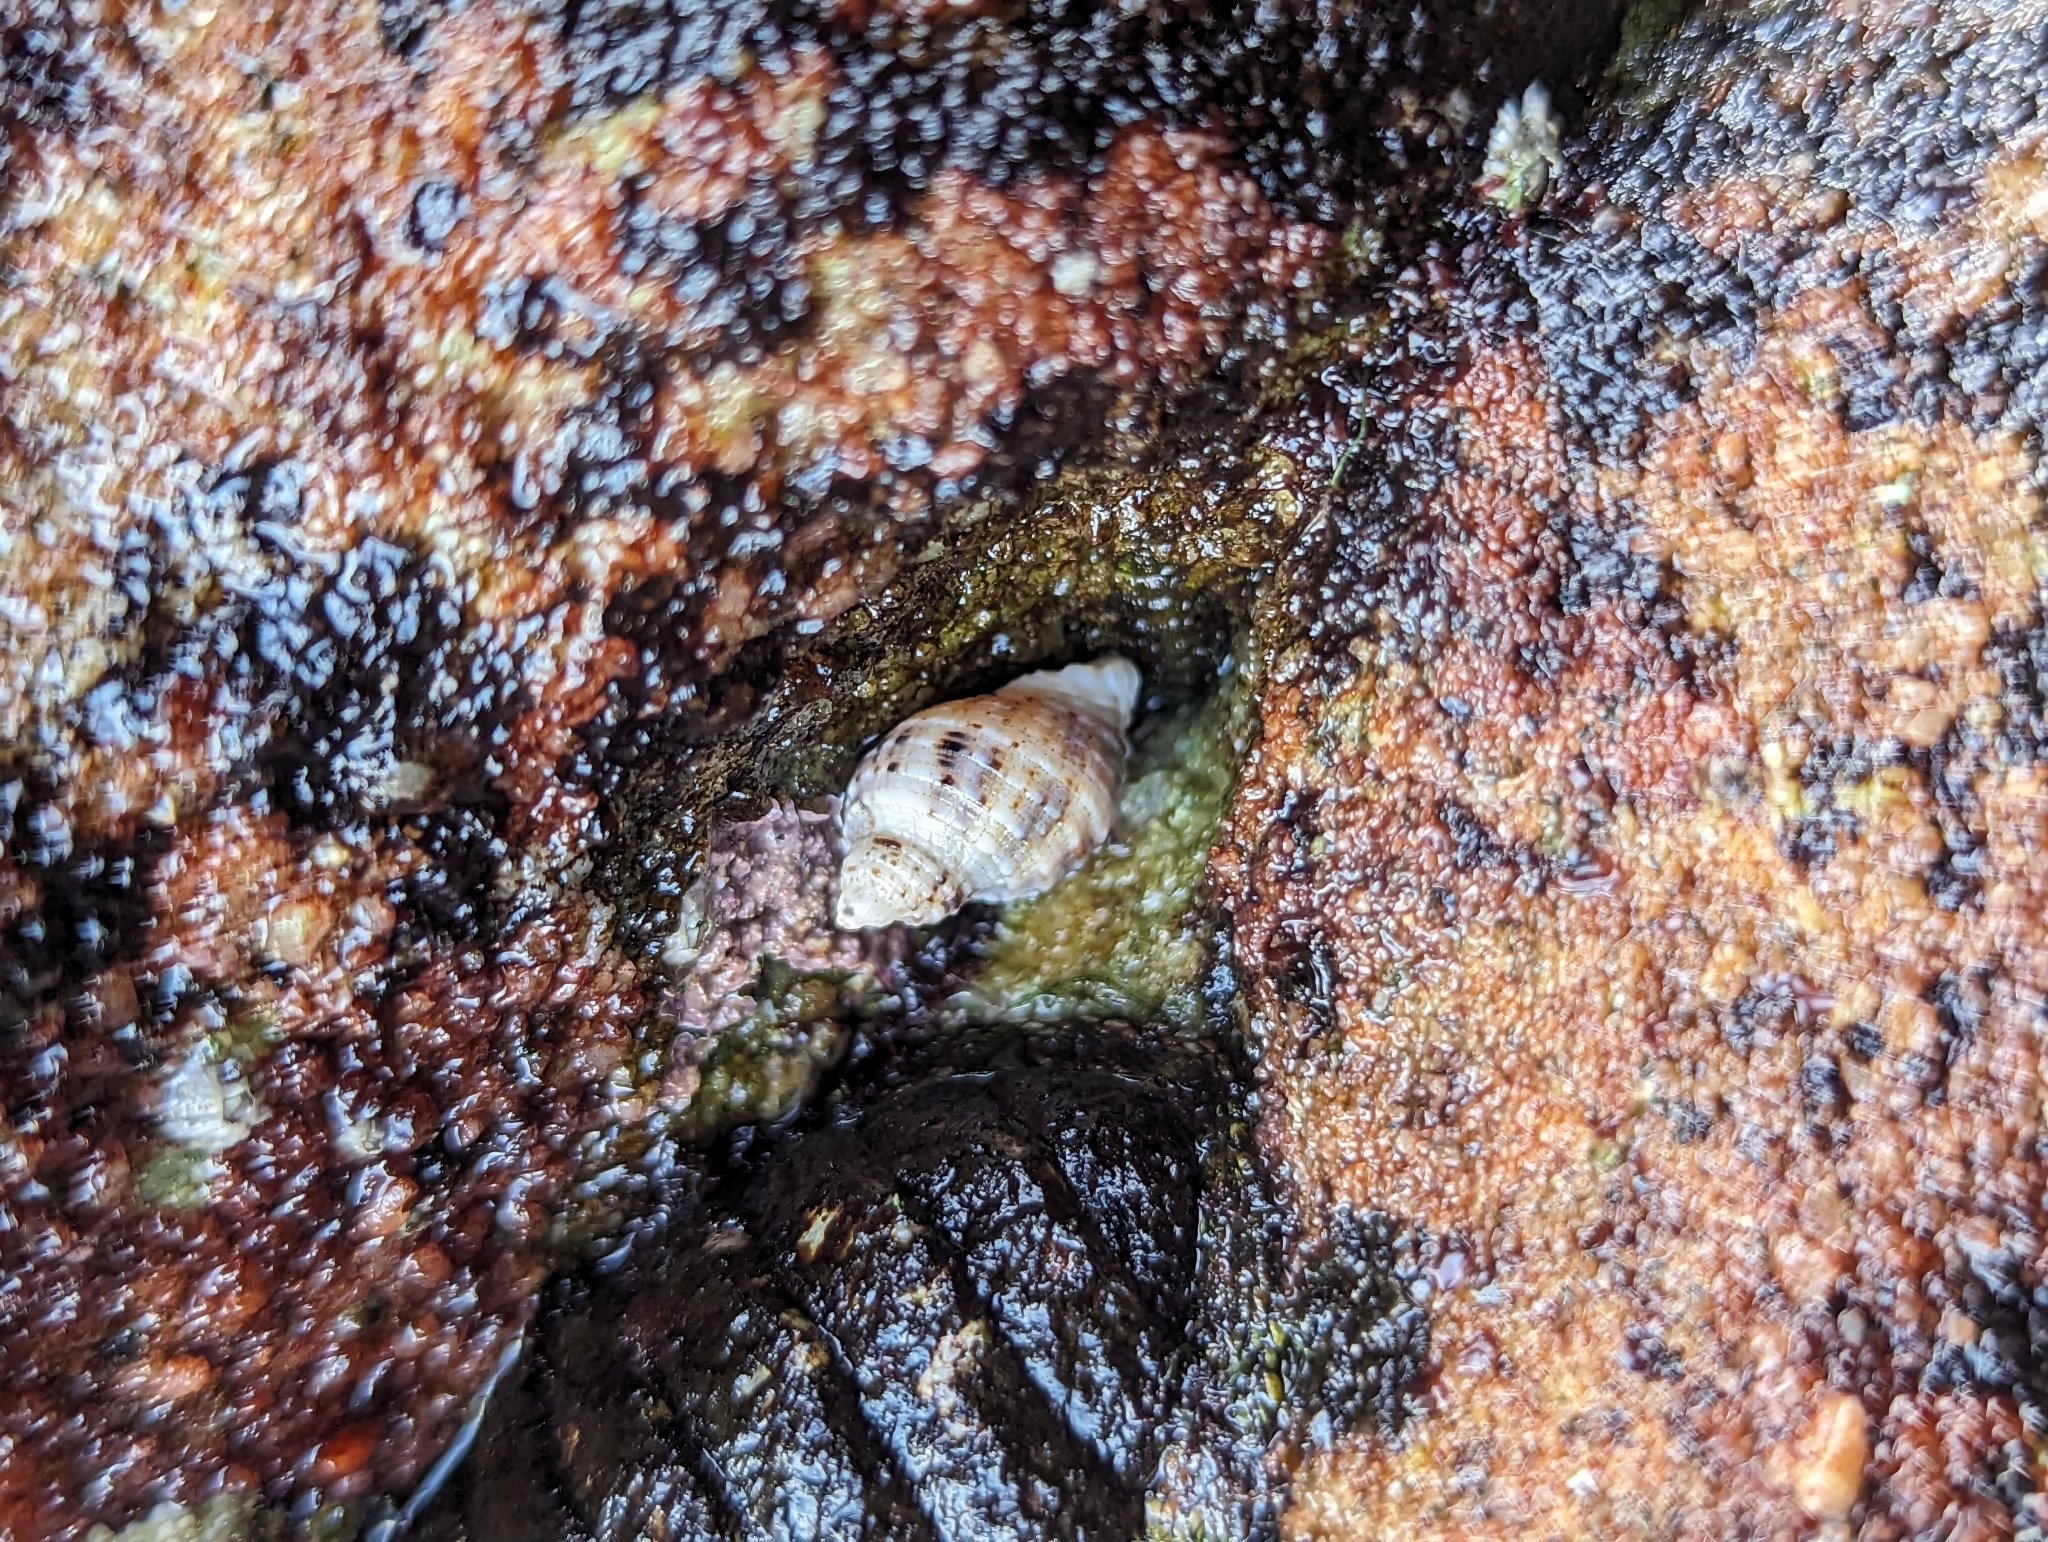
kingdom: Animalia
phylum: Mollusca
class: Gastropoda
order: Neogastropoda
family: Muricidae
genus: Dicathais
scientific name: Dicathais orbita
